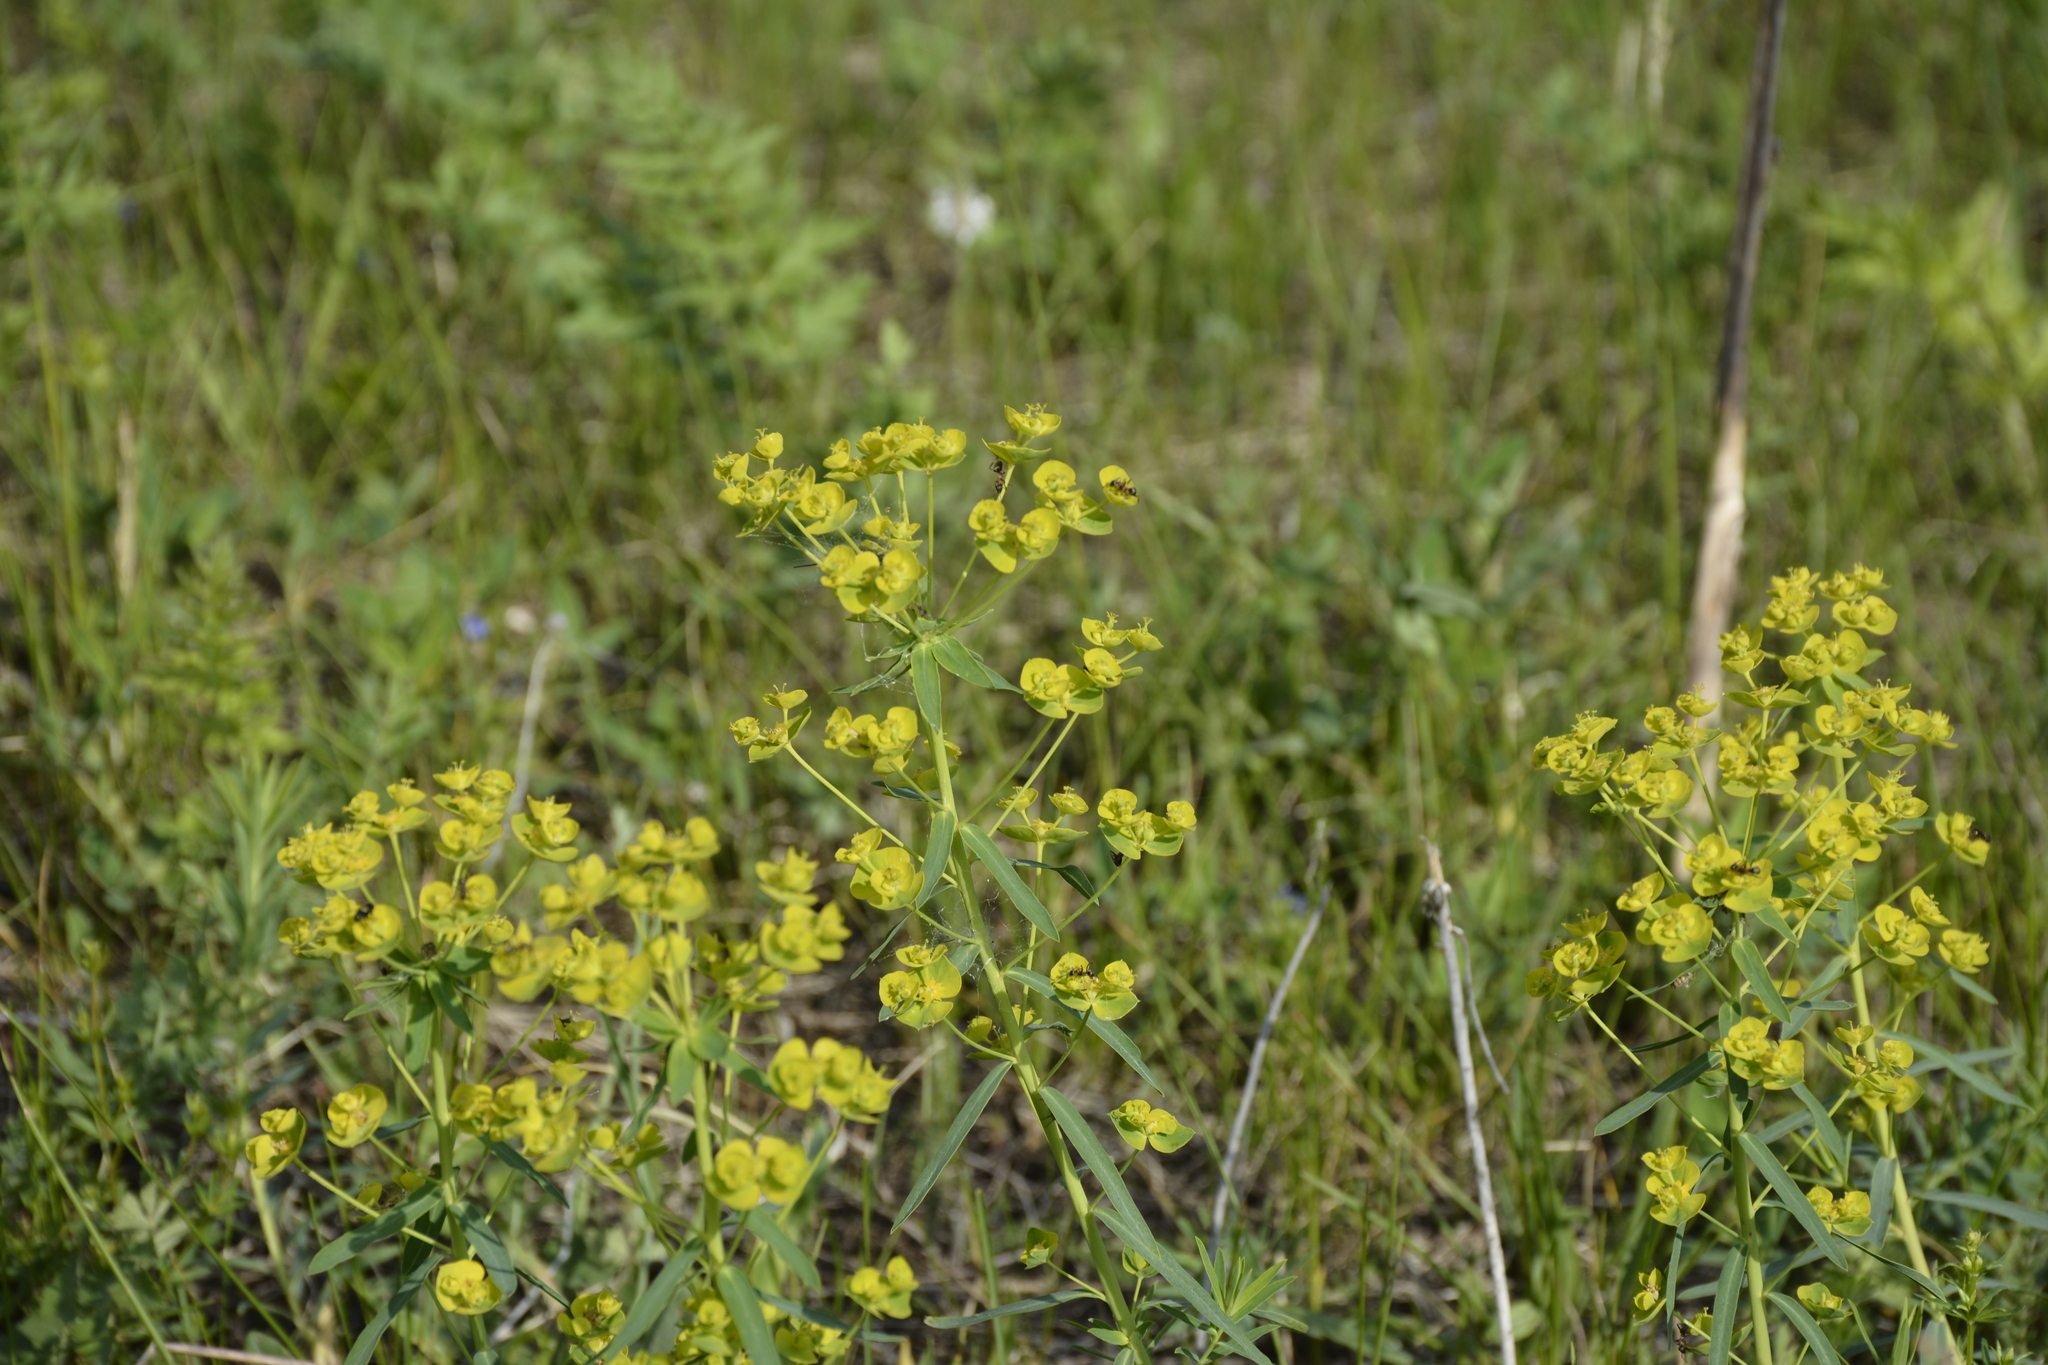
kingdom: Plantae
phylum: Tracheophyta
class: Magnoliopsida
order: Malpighiales
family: Euphorbiaceae
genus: Euphorbia
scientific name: Euphorbia virgata
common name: Leafy spurge
